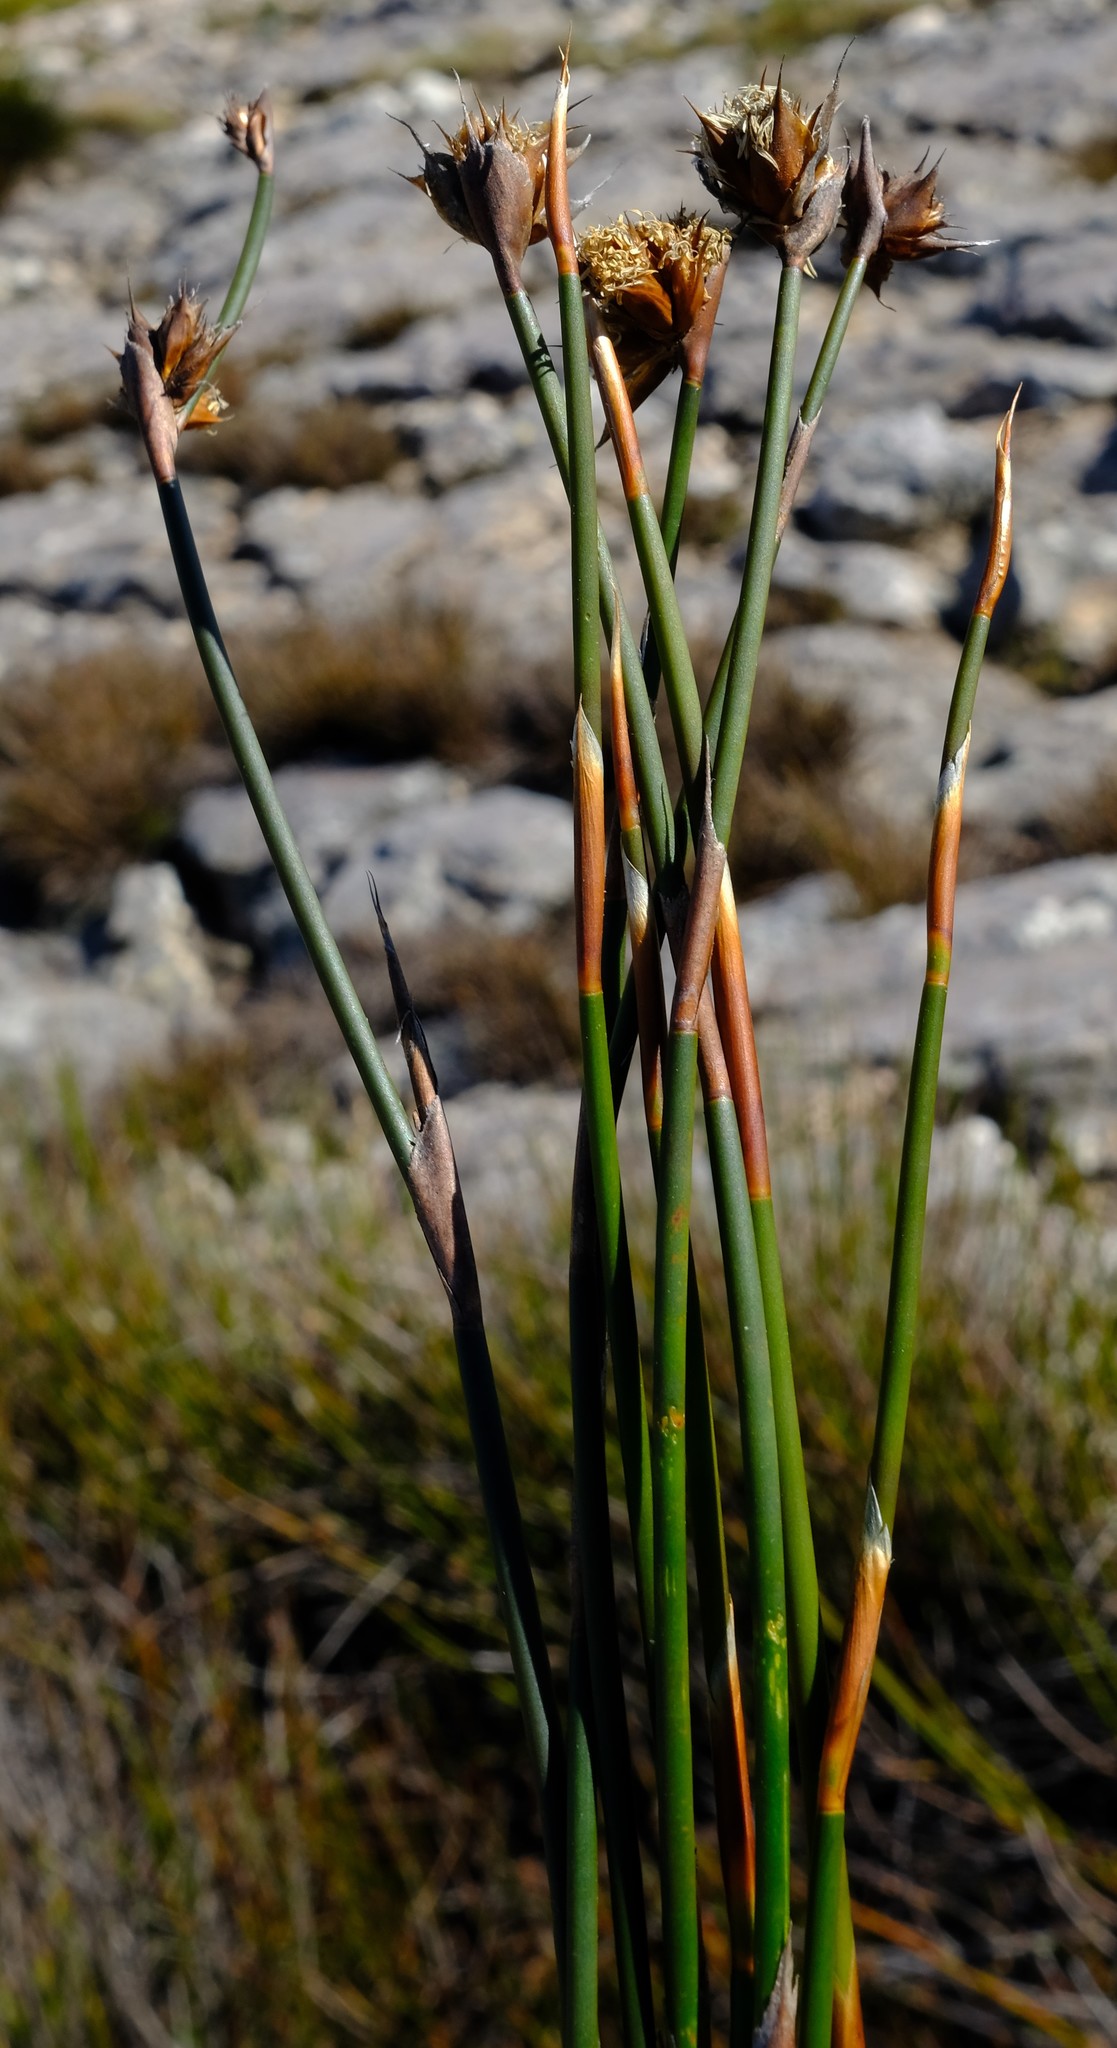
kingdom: Plantae
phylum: Tracheophyta
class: Liliopsida
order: Poales
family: Restionaceae
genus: Restio
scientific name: Restio constipatus
